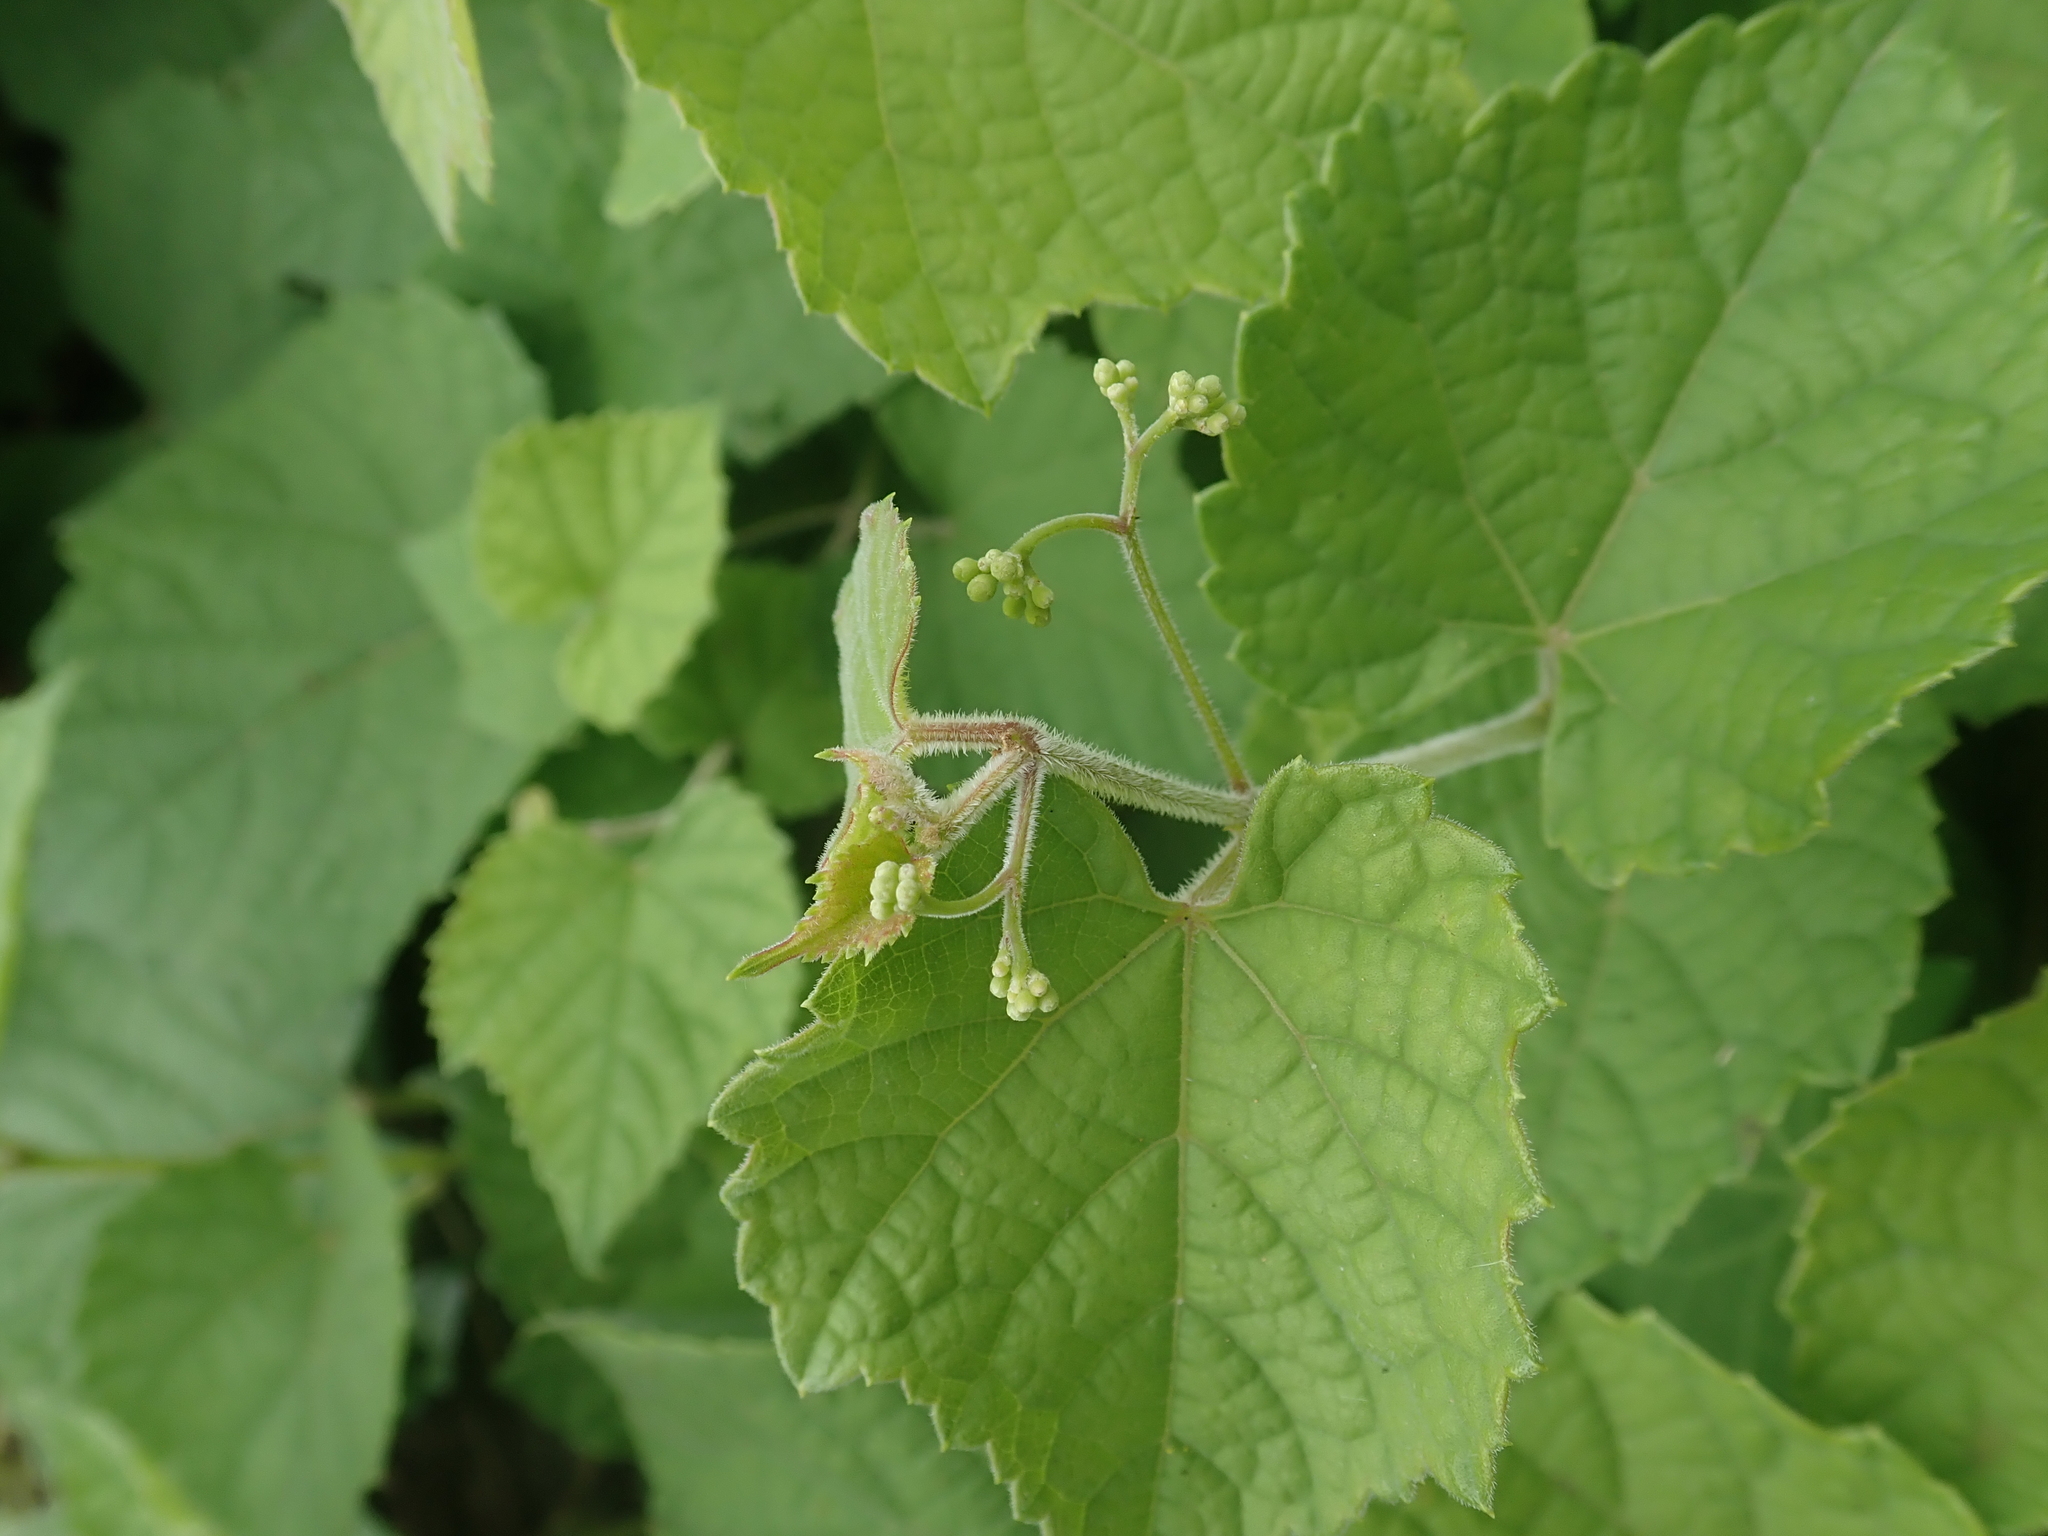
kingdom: Plantae
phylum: Tracheophyta
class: Magnoliopsida
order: Vitales
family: Vitaceae
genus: Ampelopsis
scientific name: Ampelopsis glandulosa
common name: Amur peppervine
